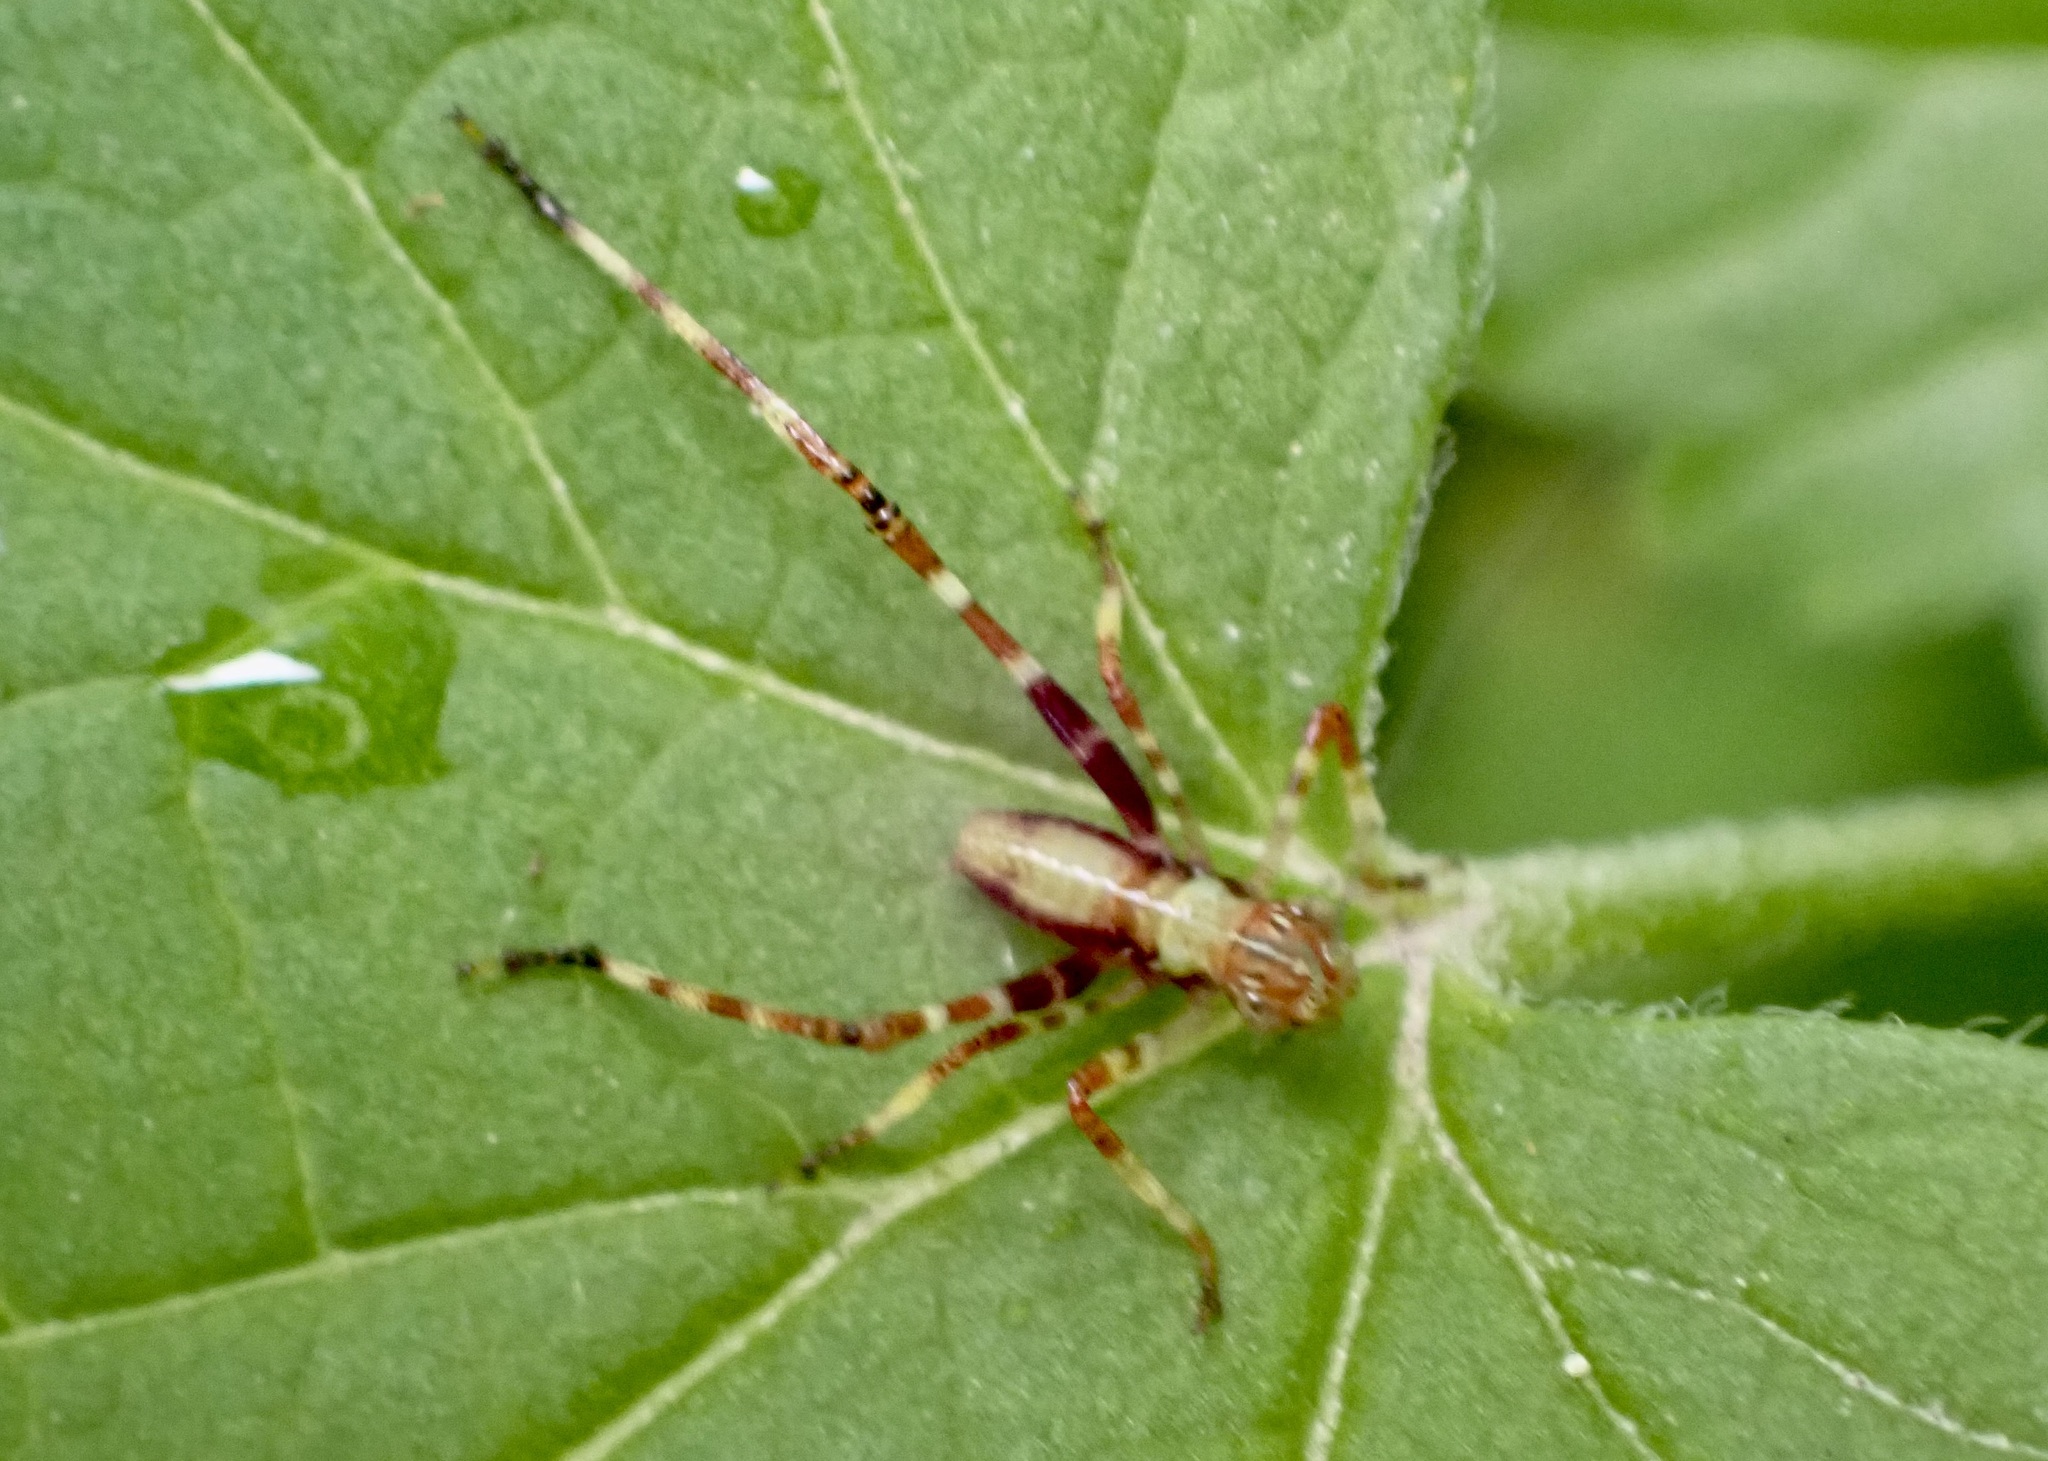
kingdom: Animalia
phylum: Arthropoda
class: Insecta
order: Orthoptera
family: Tettigoniidae
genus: Caedicia
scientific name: Caedicia simplex
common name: Common garden katydid
